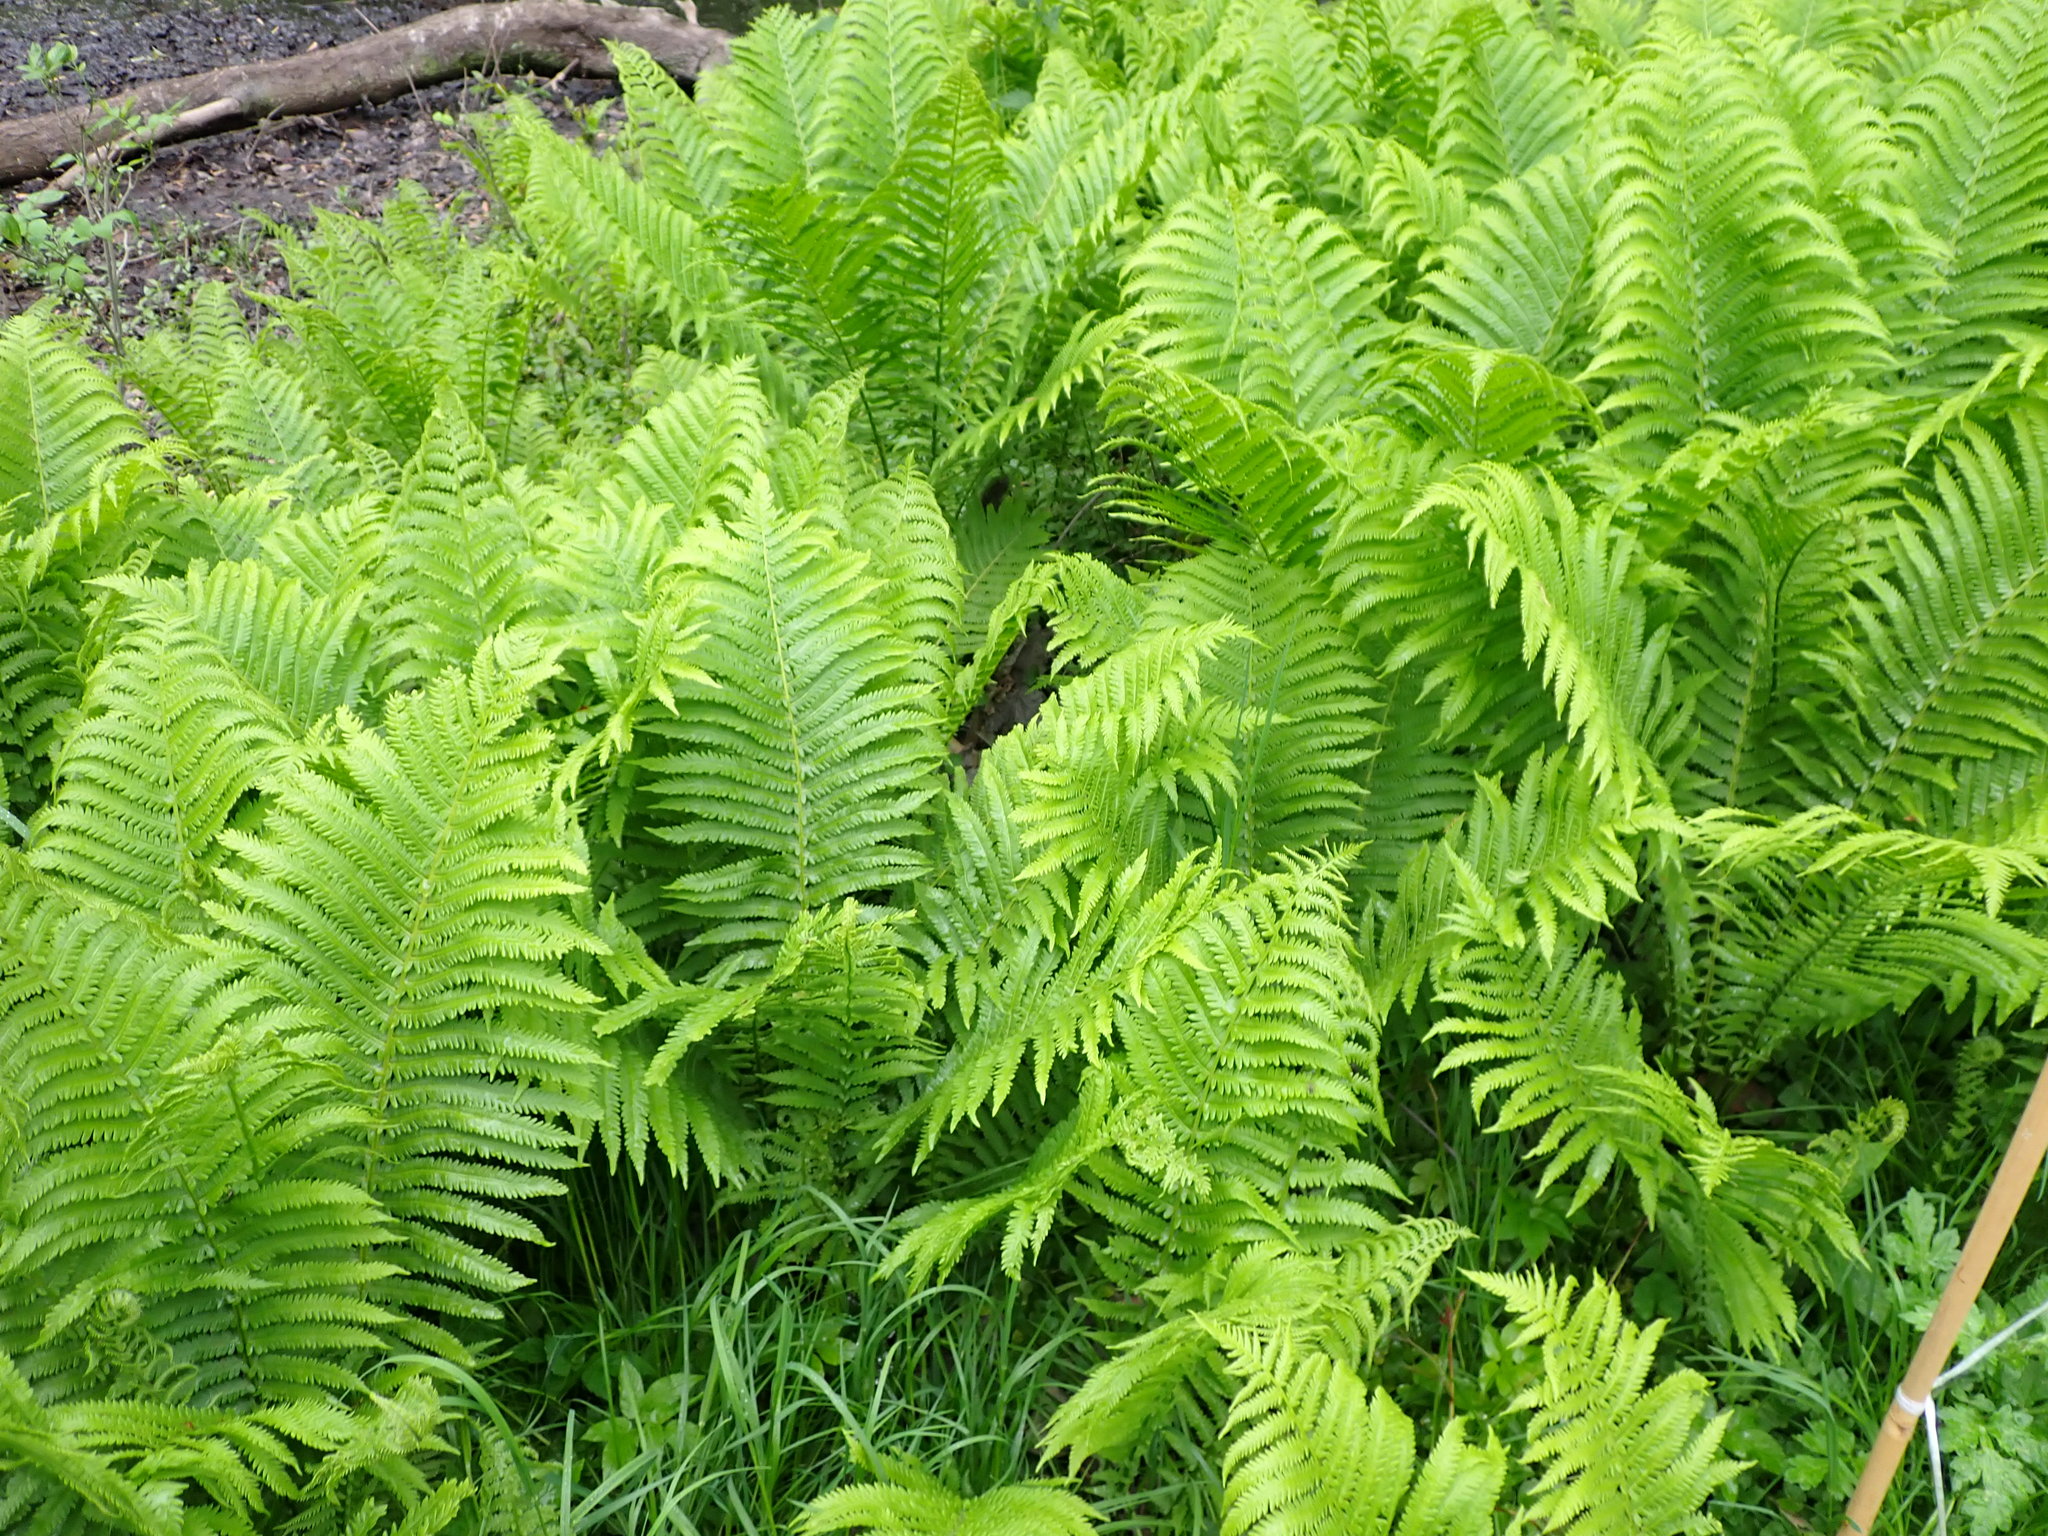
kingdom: Plantae
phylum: Tracheophyta
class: Polypodiopsida
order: Polypodiales
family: Onocleaceae
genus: Matteuccia
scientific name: Matteuccia struthiopteris
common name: Ostrich fern
